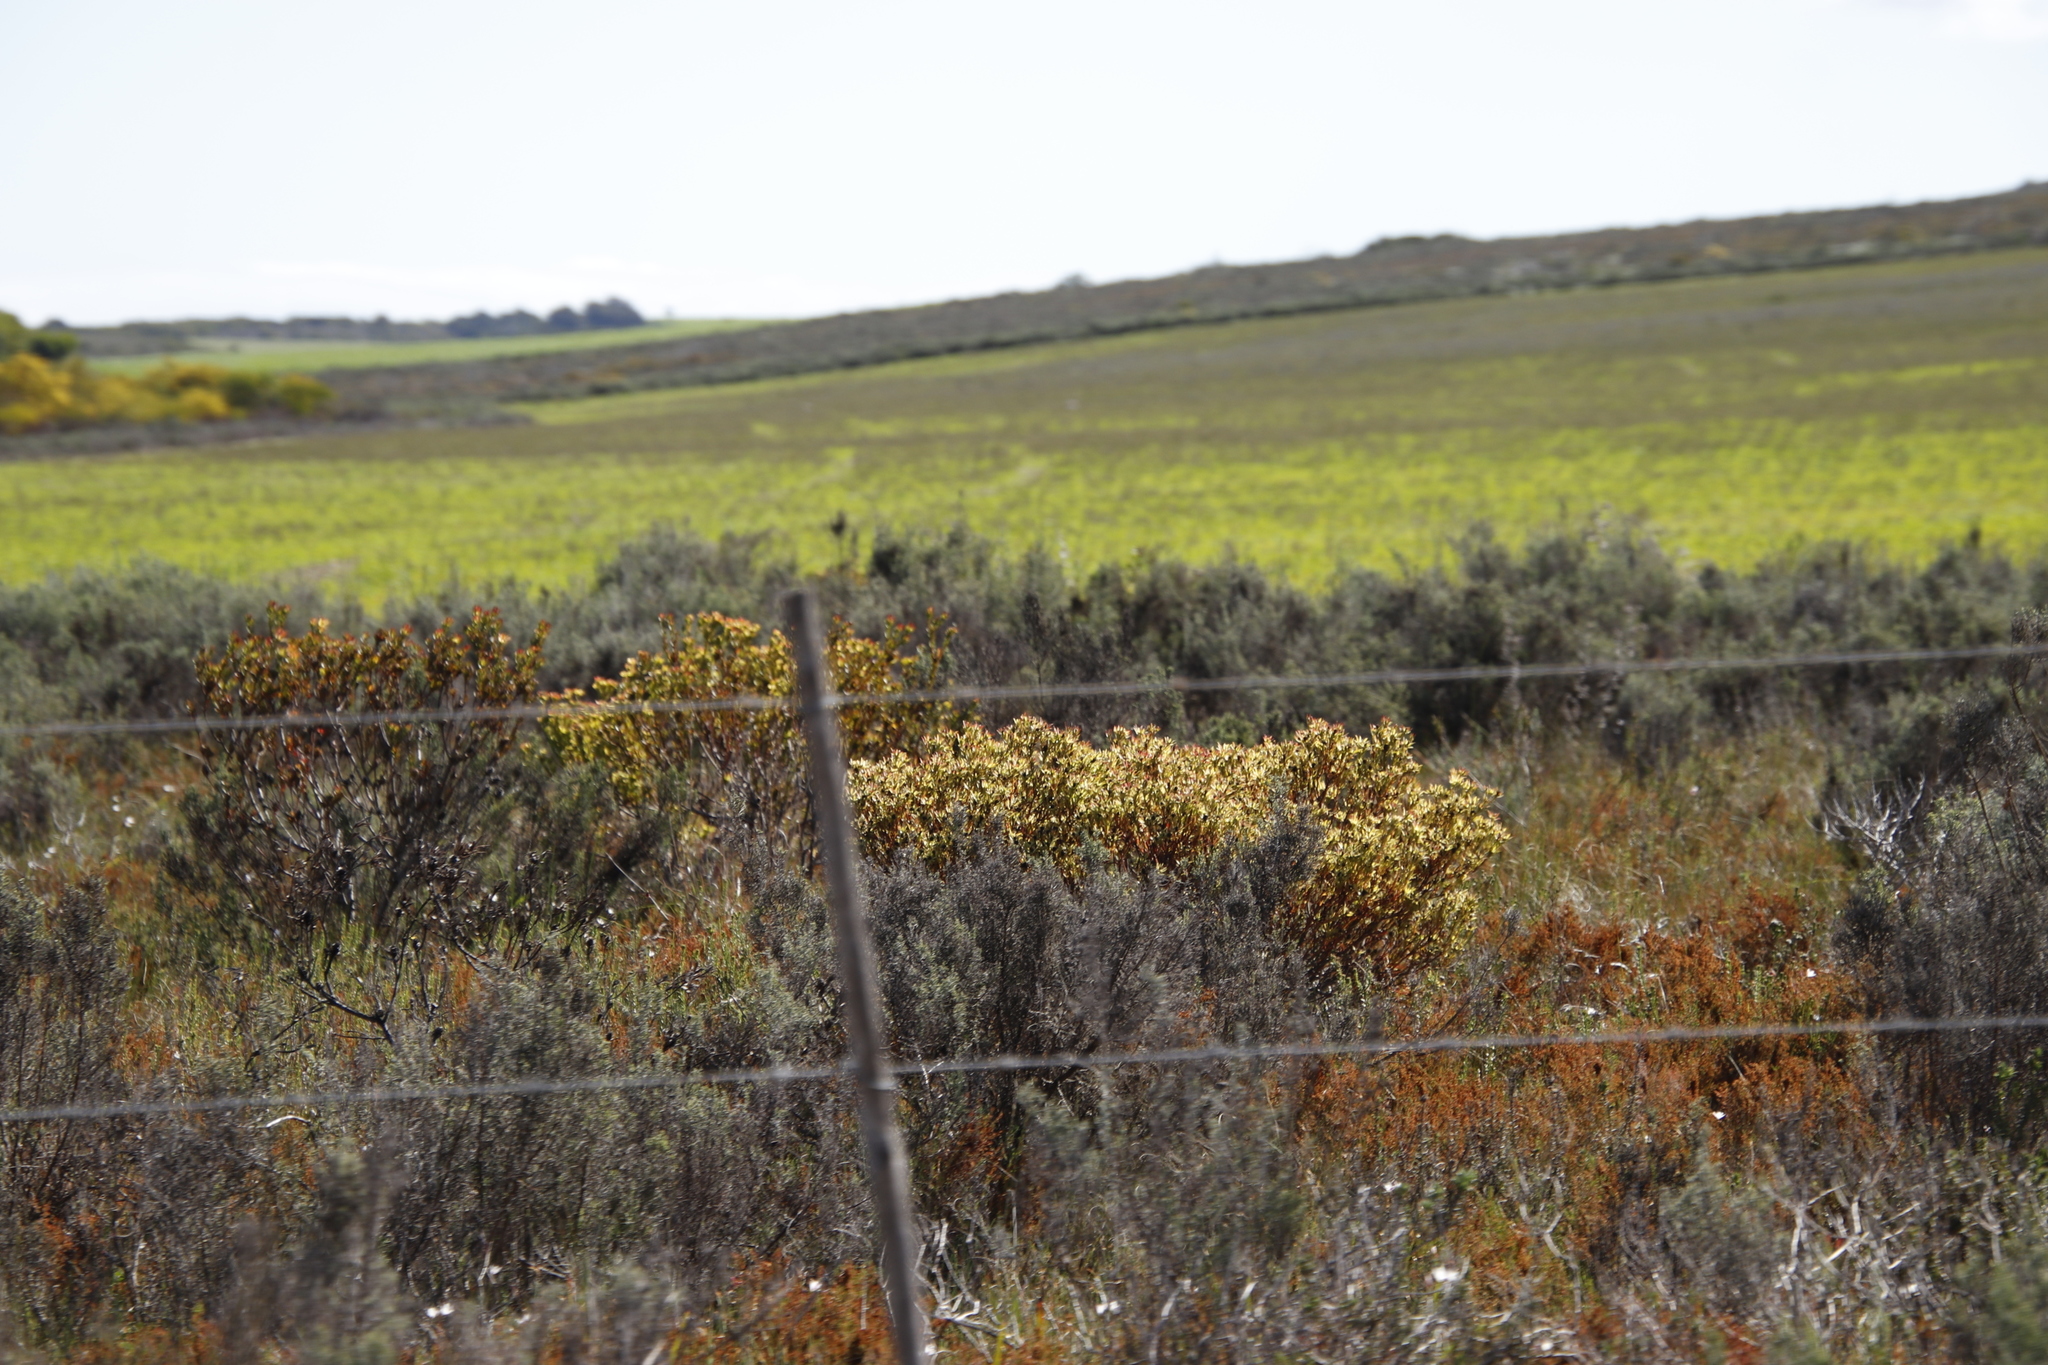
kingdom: Plantae
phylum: Tracheophyta
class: Magnoliopsida
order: Proteales
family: Proteaceae
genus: Leucadendron
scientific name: Leucadendron modestum
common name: Rough-leaf conebush
